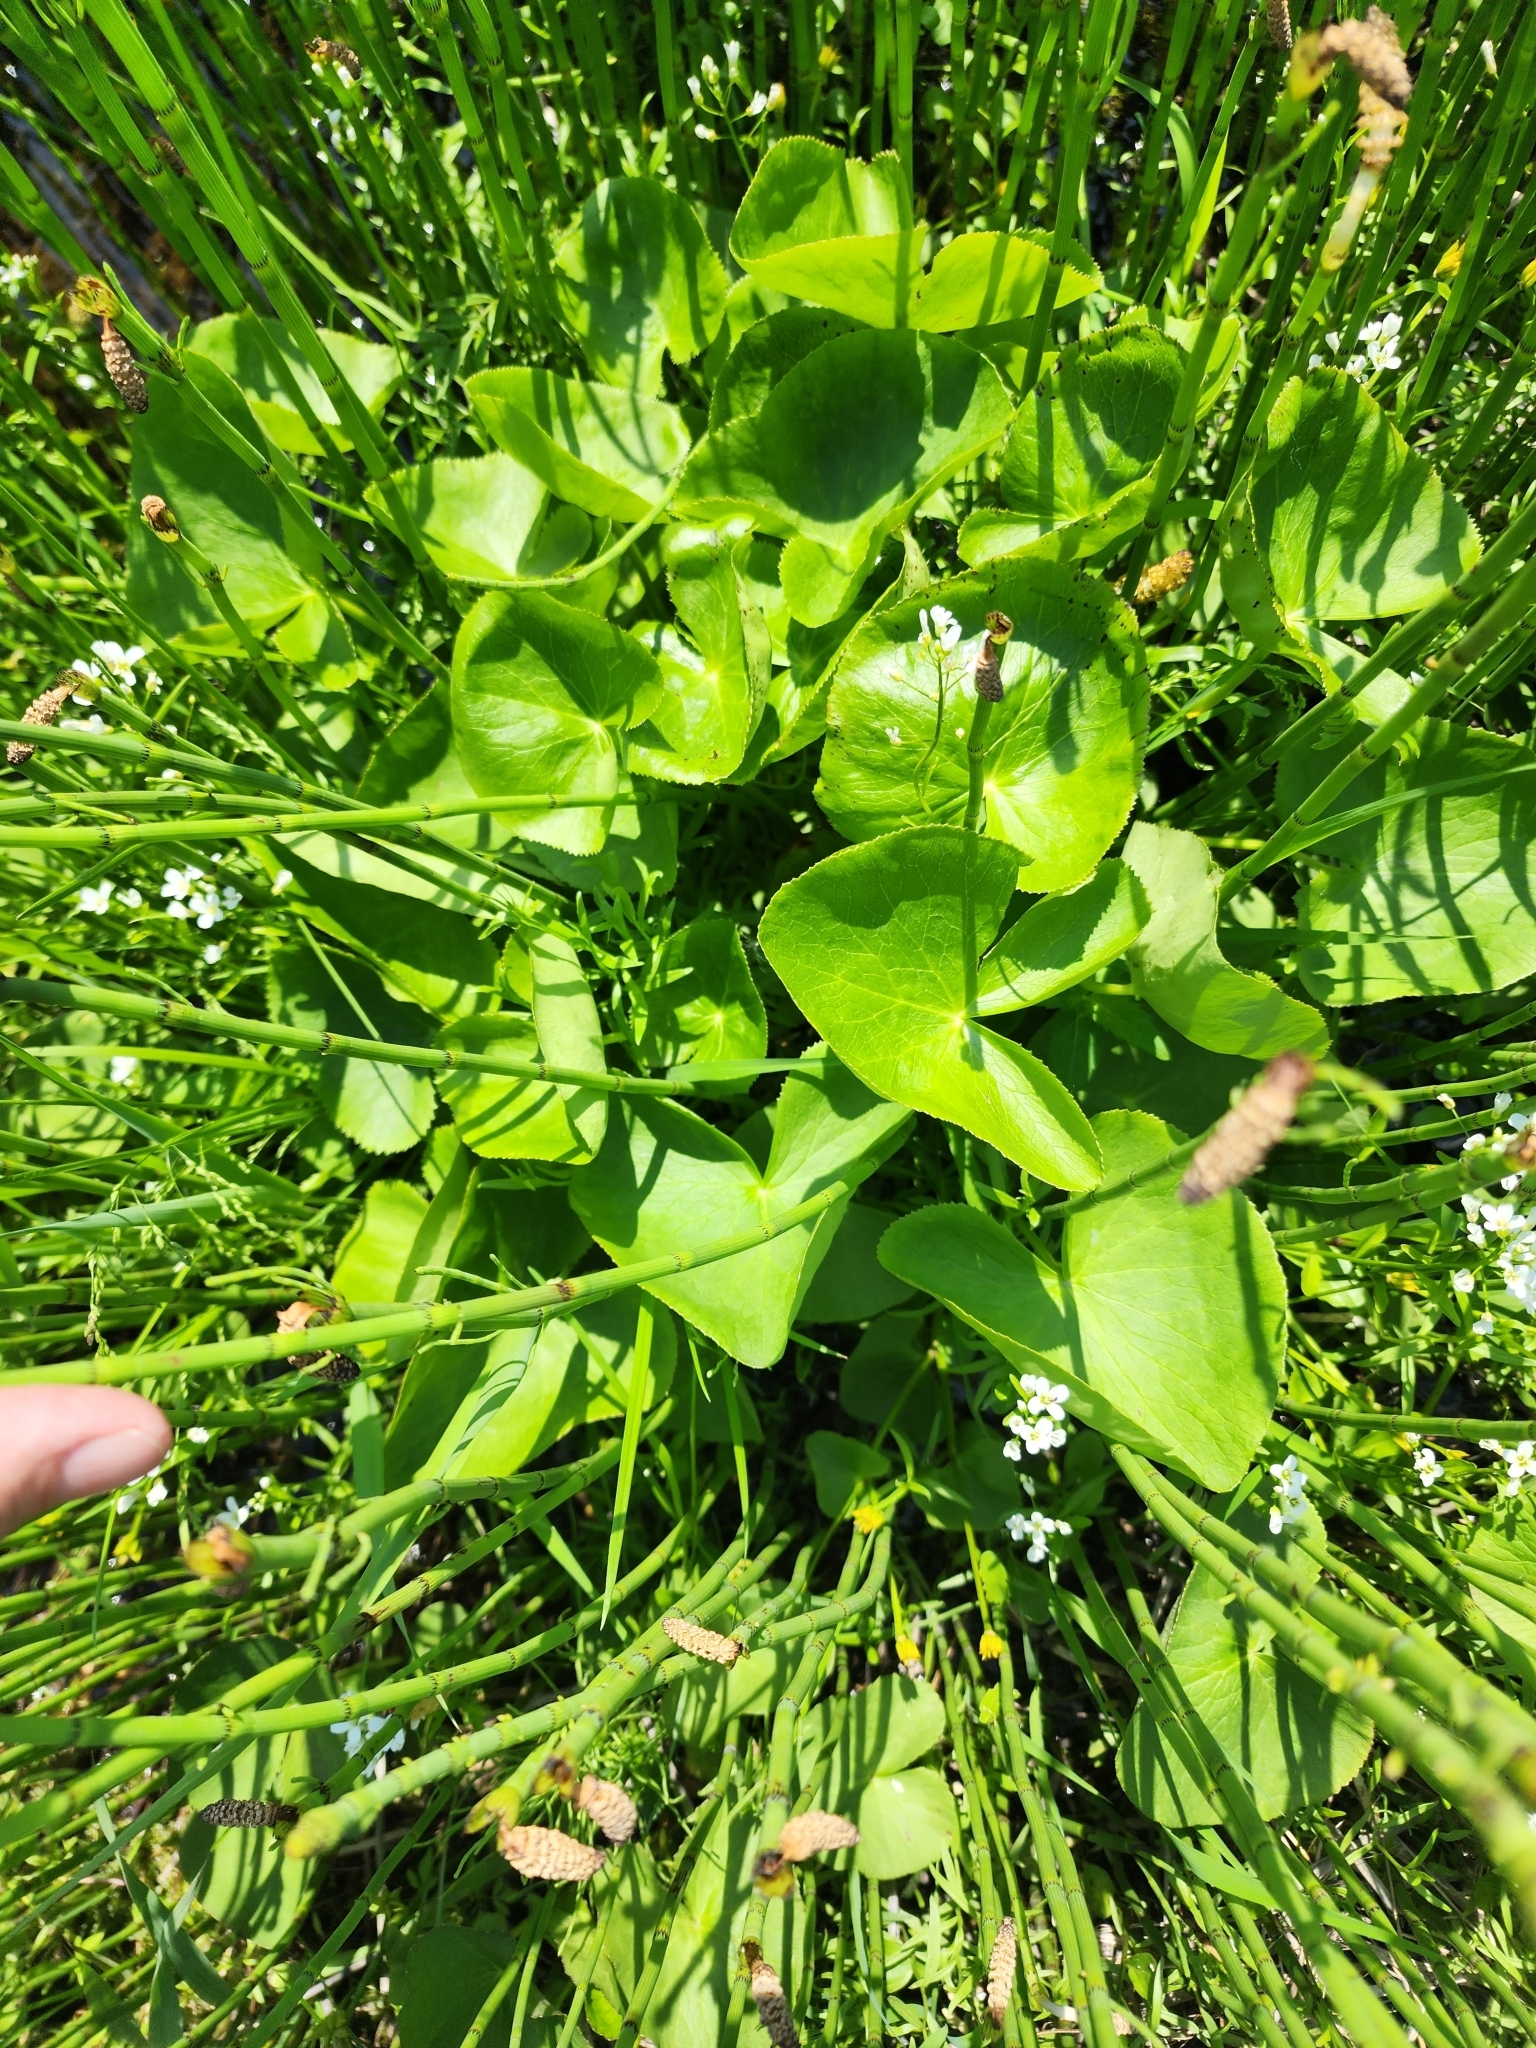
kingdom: Plantae
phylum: Tracheophyta
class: Magnoliopsida
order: Ranunculales
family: Ranunculaceae
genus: Caltha
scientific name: Caltha palustris
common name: Marsh marigold
